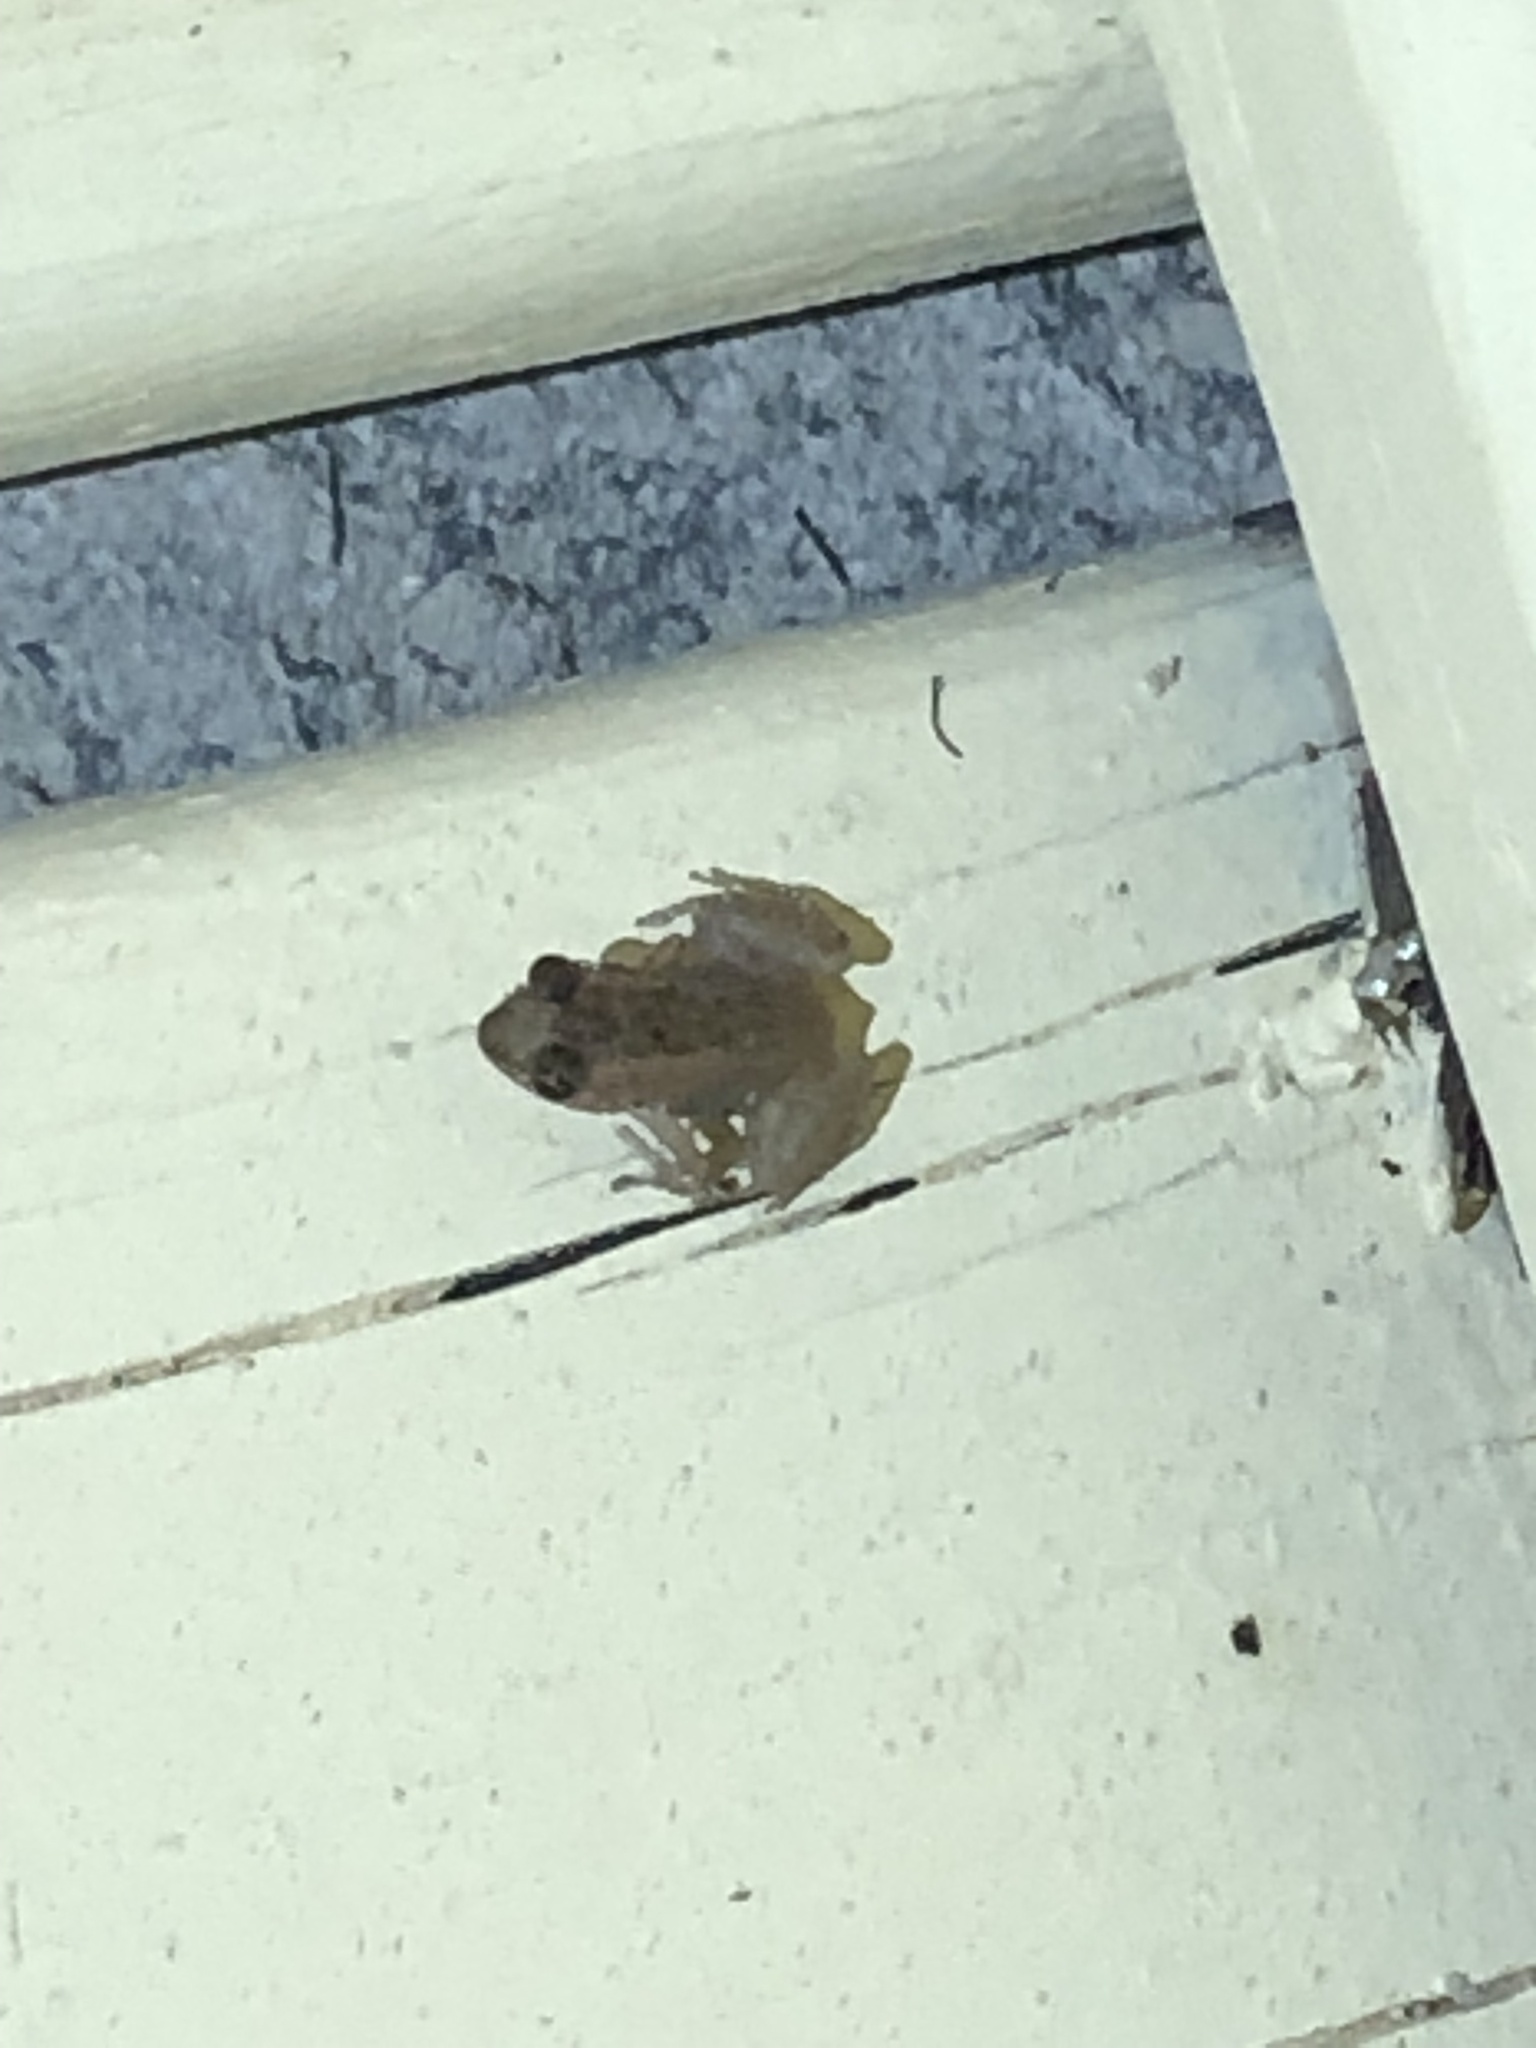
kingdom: Animalia
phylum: Chordata
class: Amphibia
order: Anura
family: Eleutherodactylidae
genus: Eleutherodactylus
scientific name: Eleutherodactylus planirostris
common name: Greenhouse frog
